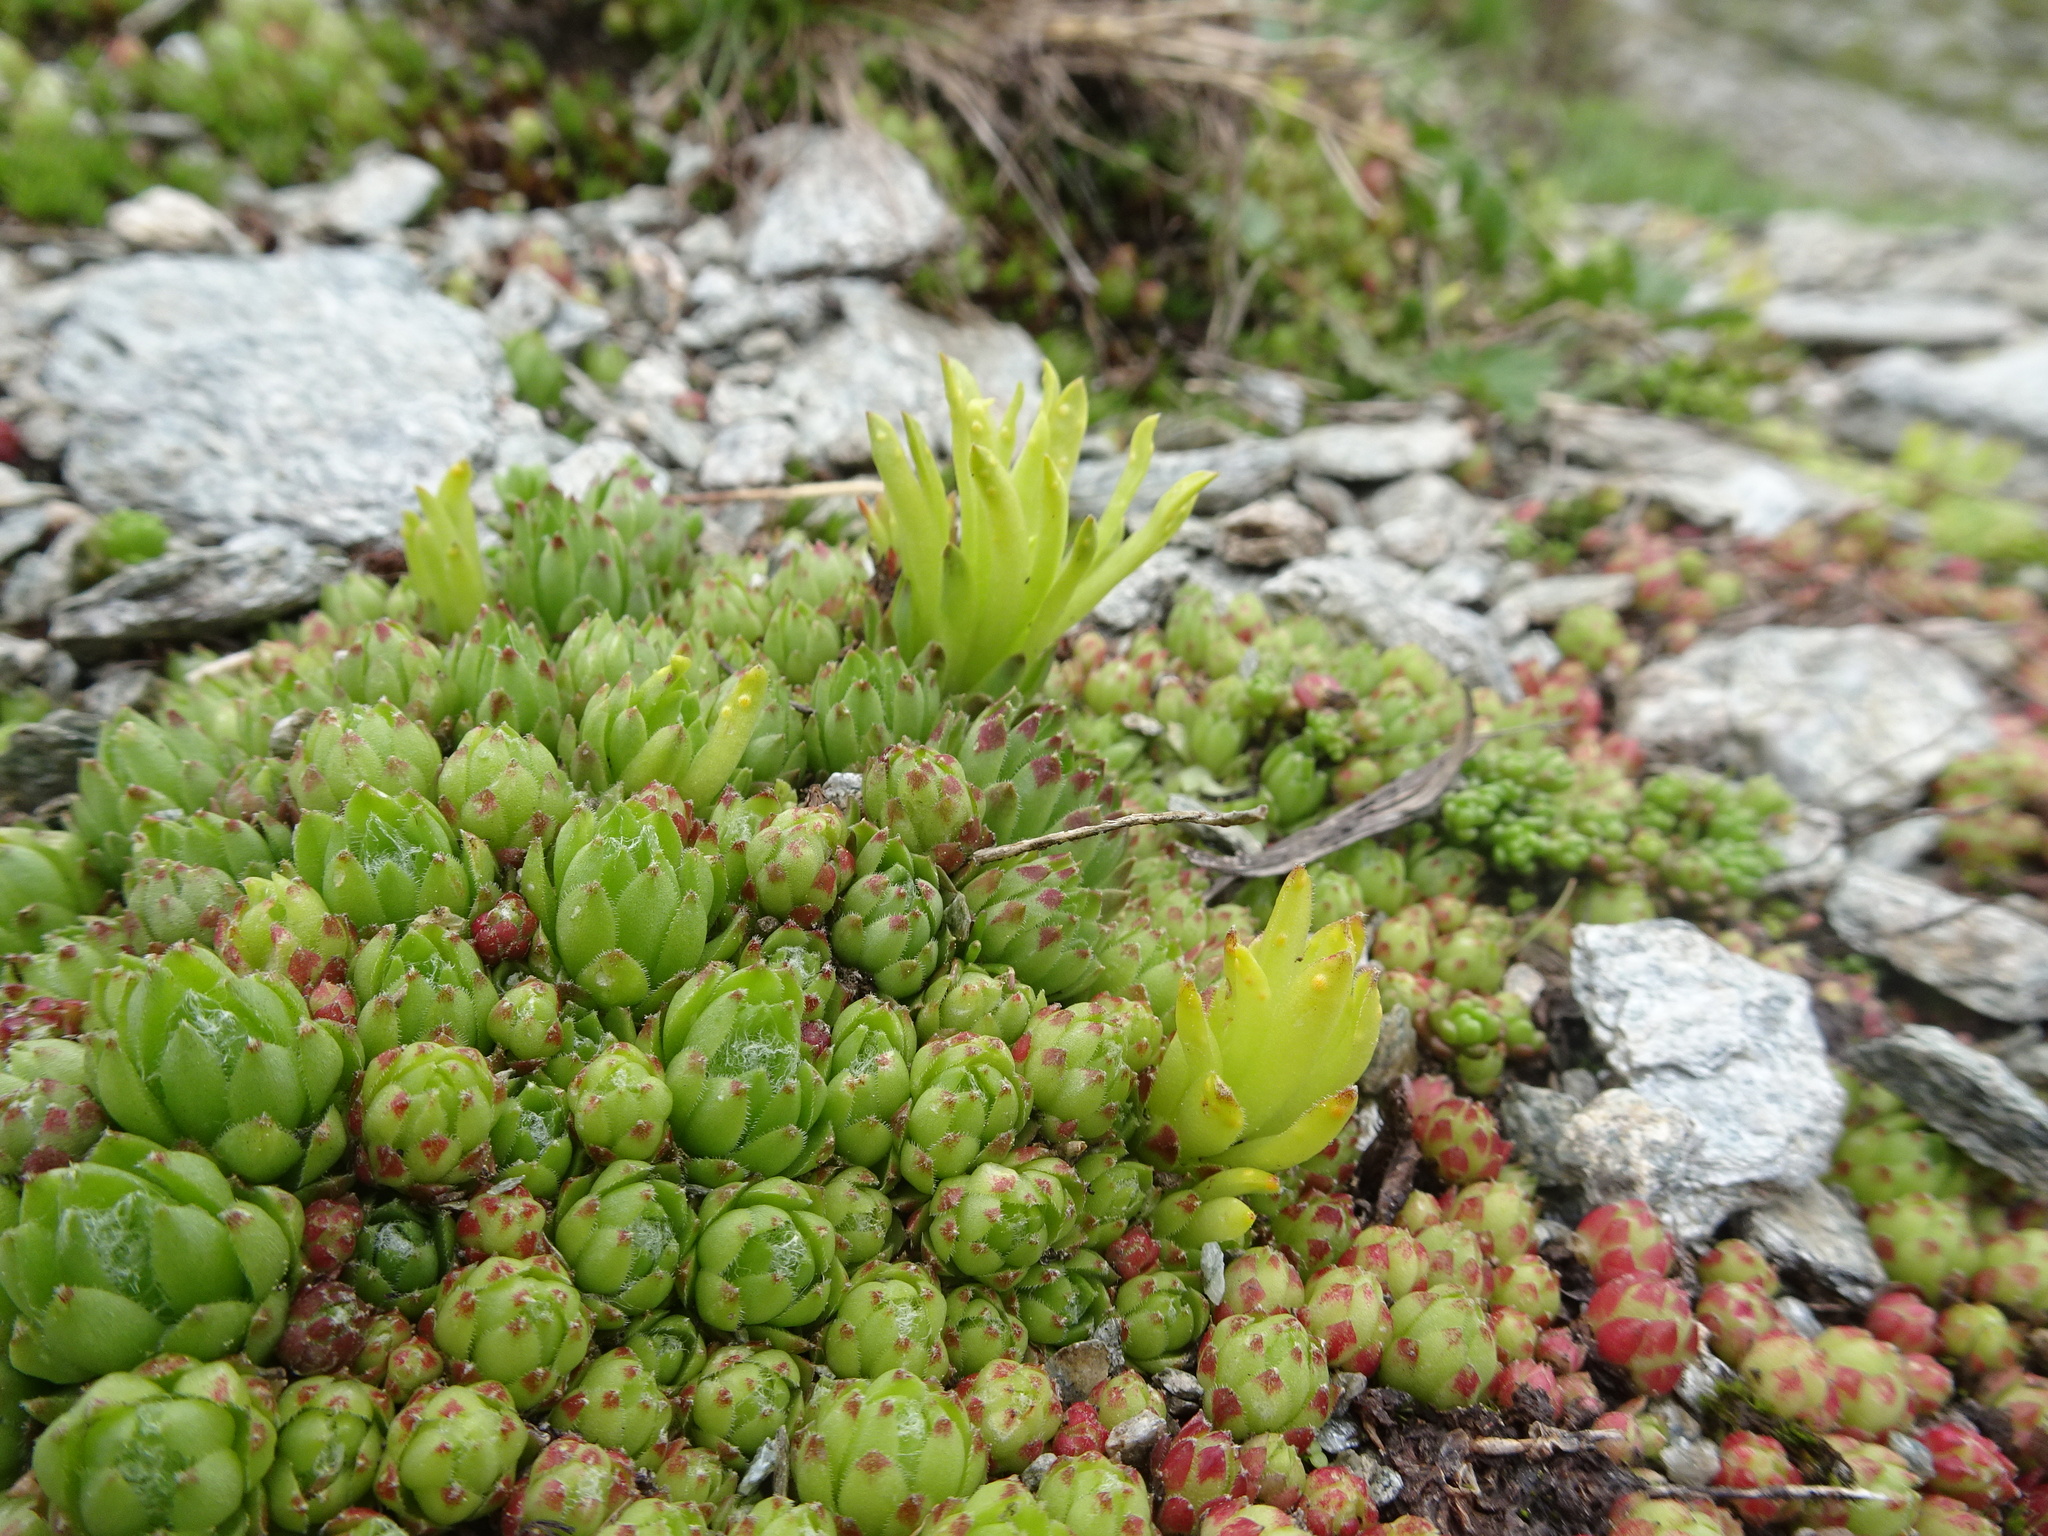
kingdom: Fungi
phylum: Basidiomycota
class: Pucciniomycetes
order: Pucciniales
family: Pucciniaceae
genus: Endophyllum
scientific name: Endophyllum sempervivi
